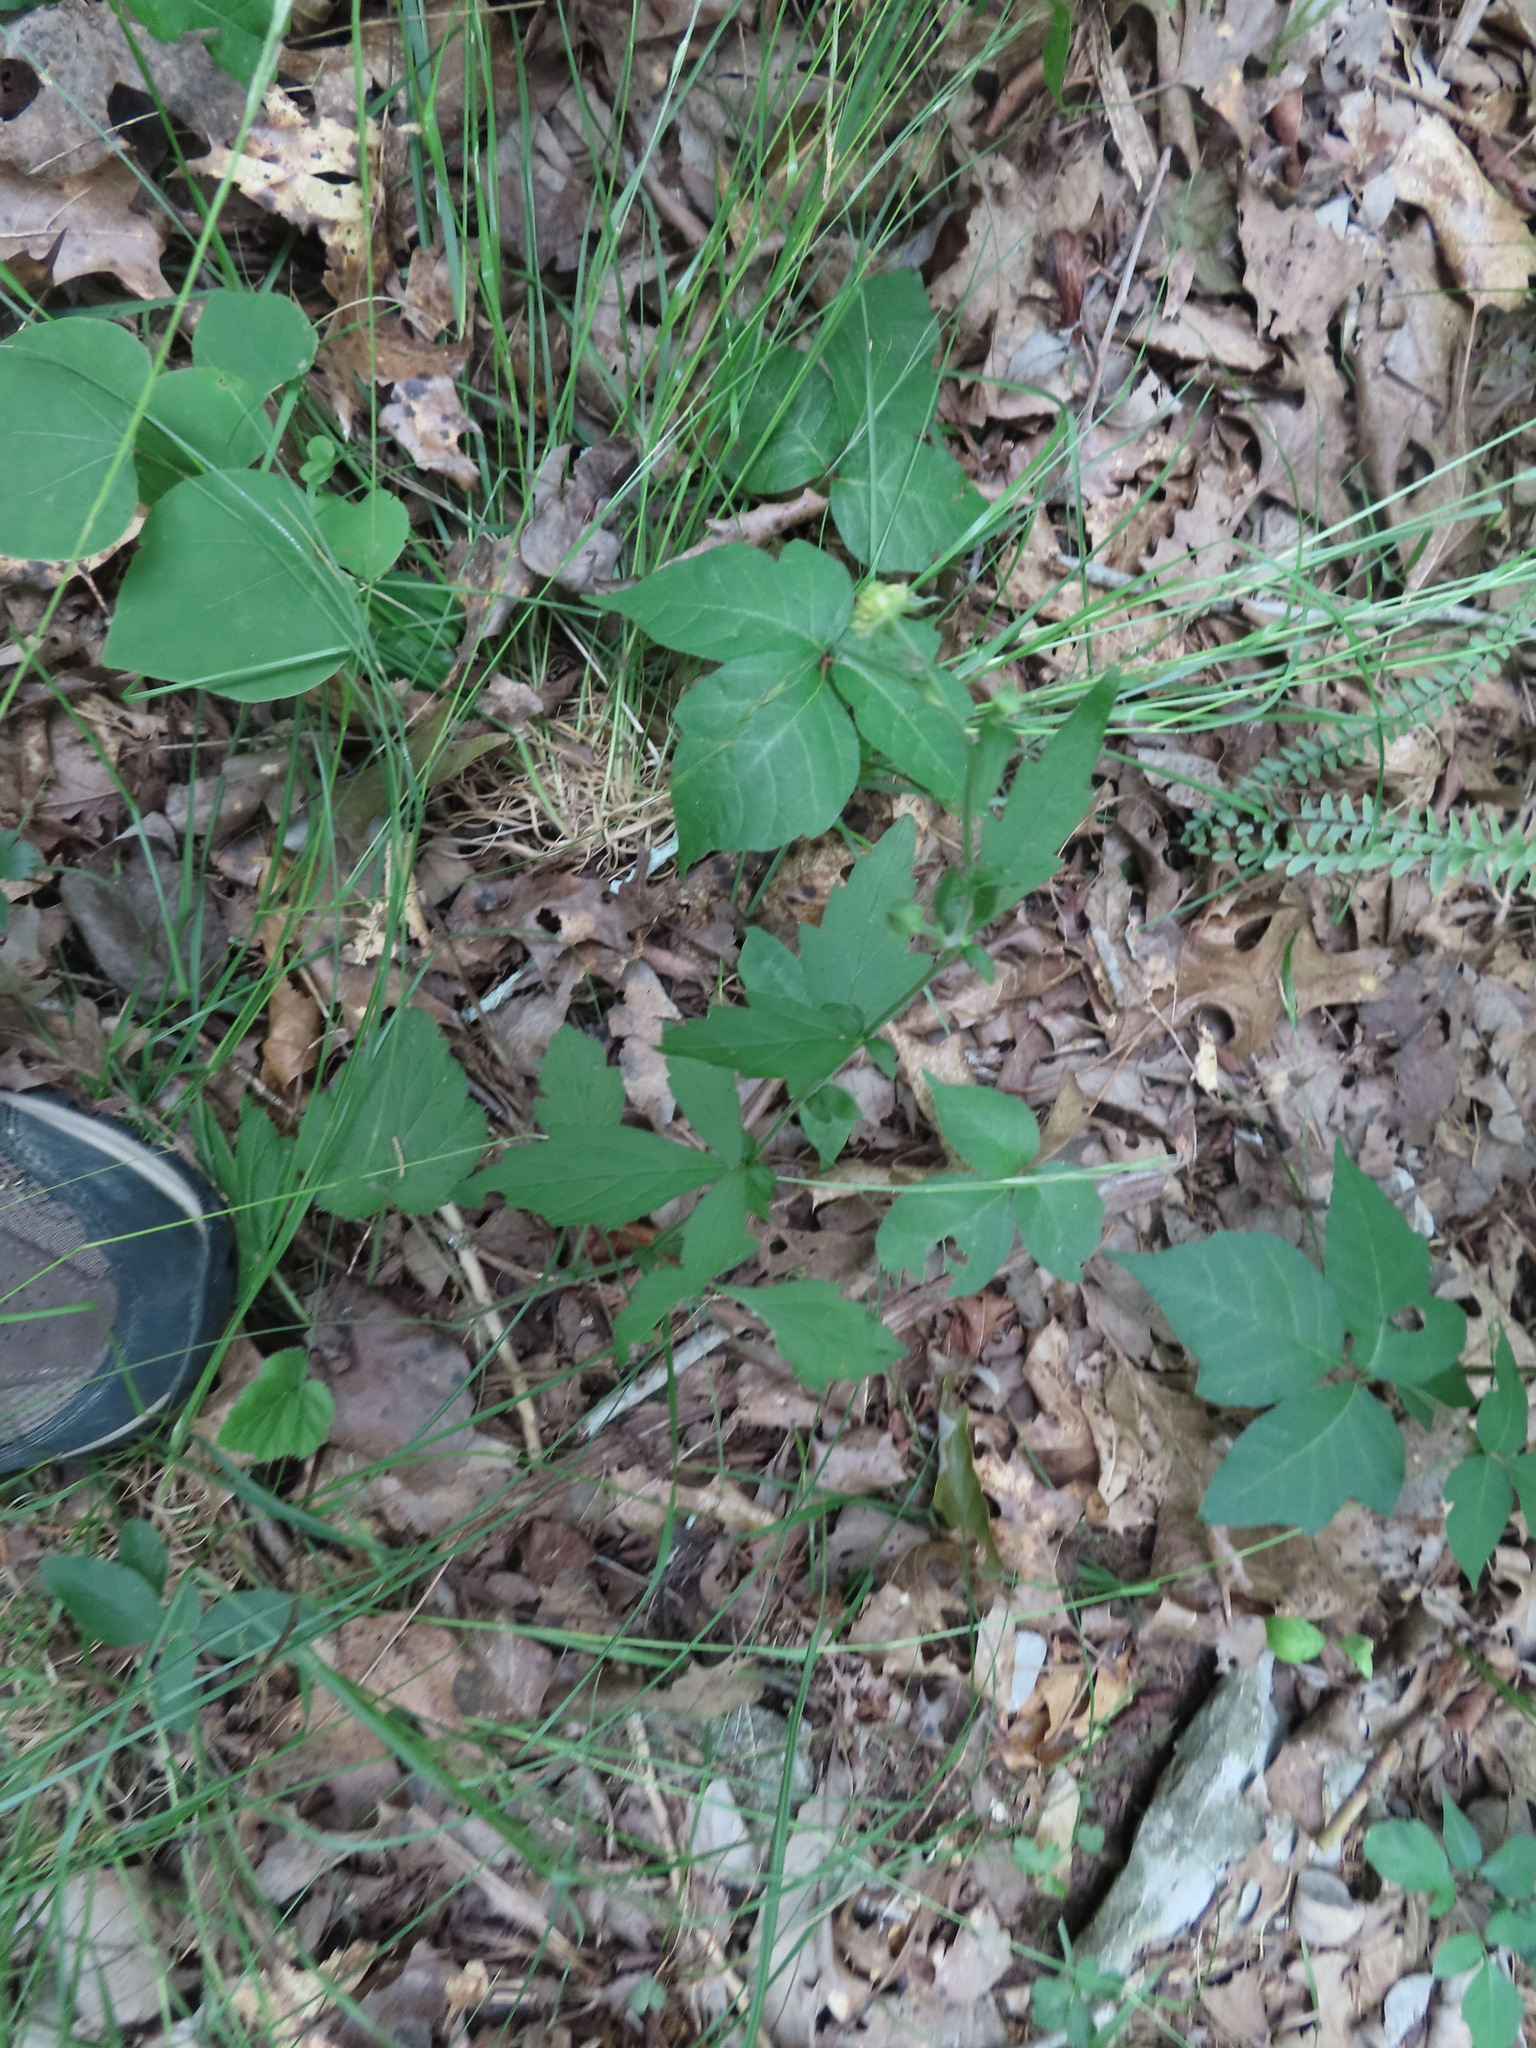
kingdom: Plantae
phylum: Tracheophyta
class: Magnoliopsida
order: Sapindales
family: Anacardiaceae
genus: Toxicodendron
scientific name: Toxicodendron radicans
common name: Poison ivy
